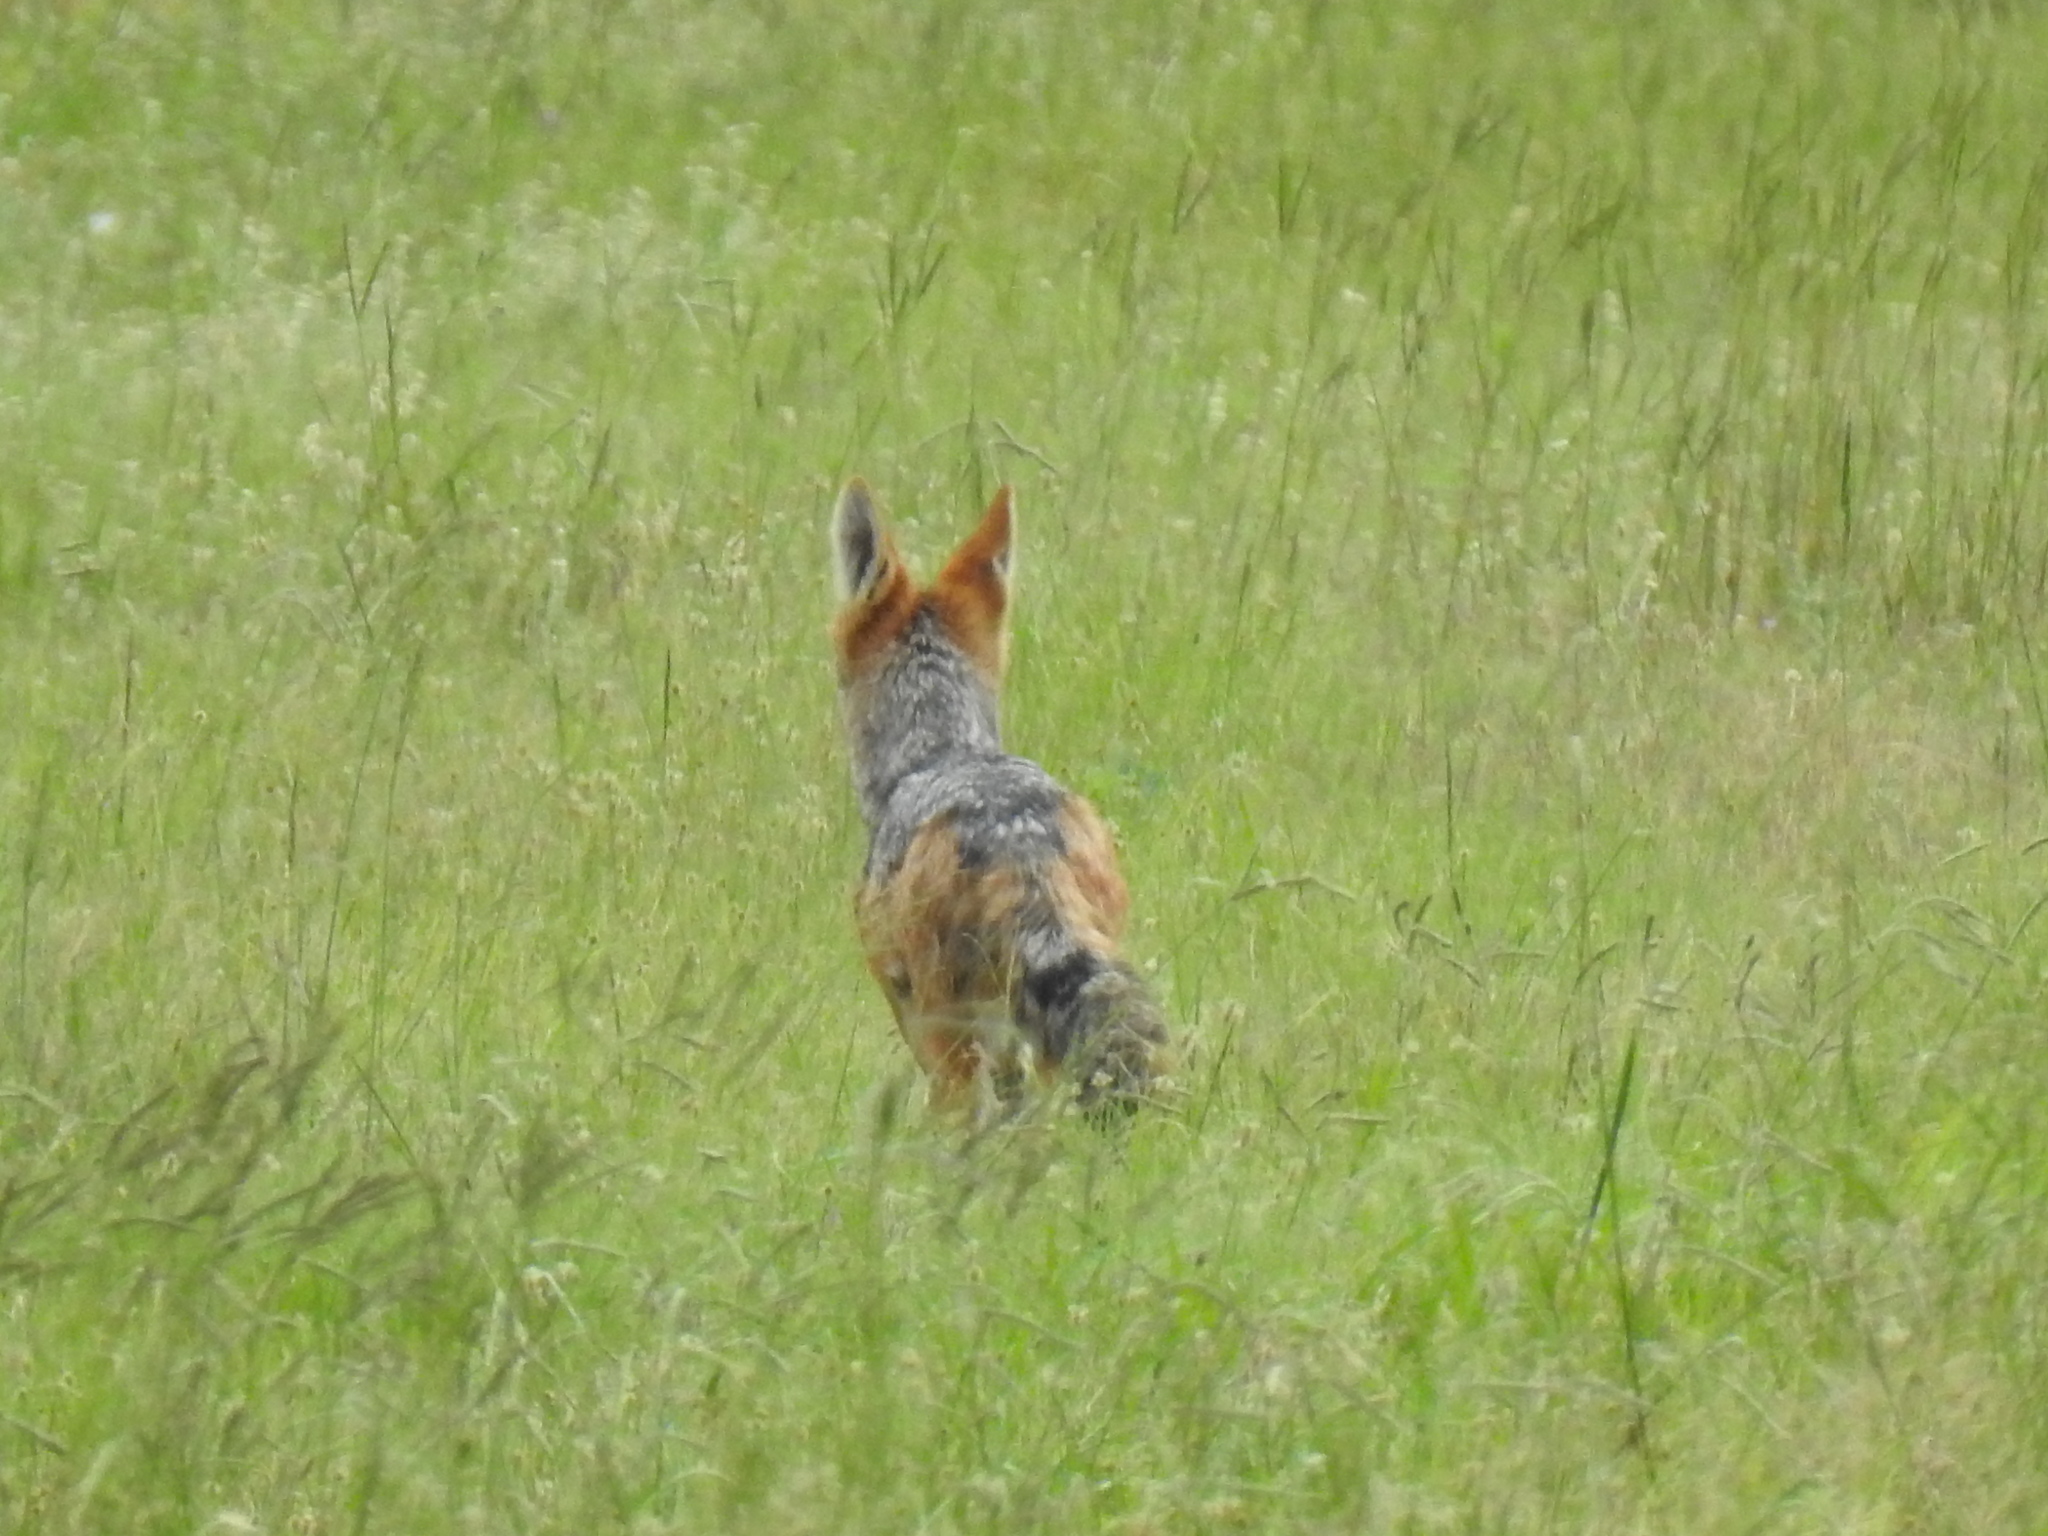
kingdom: Animalia
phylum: Chordata
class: Mammalia
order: Carnivora
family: Canidae
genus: Lupulella
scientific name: Lupulella
